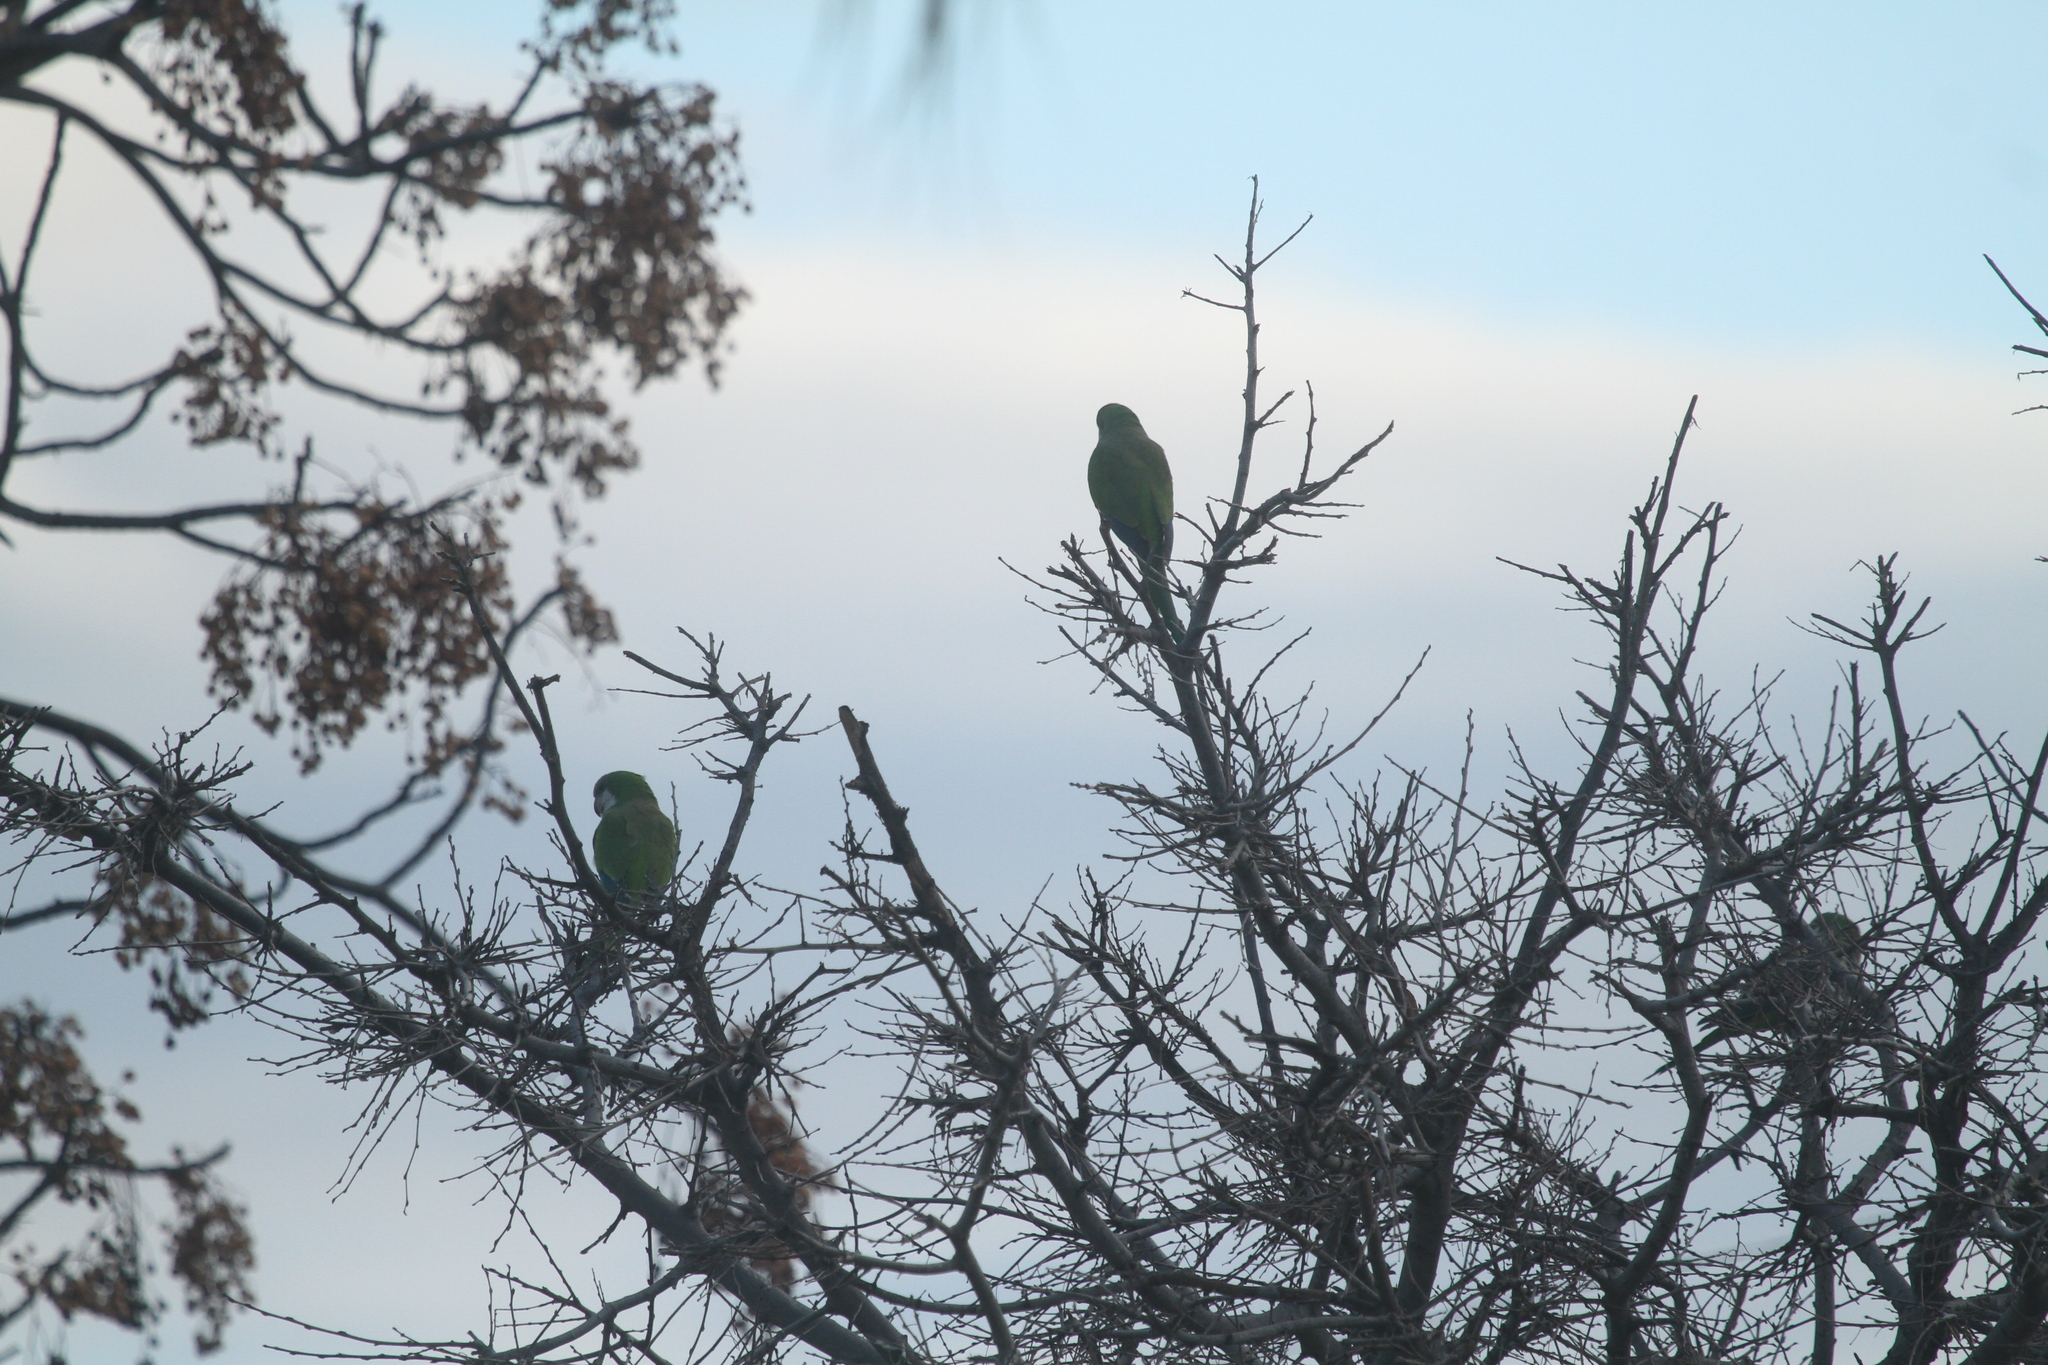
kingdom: Animalia
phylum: Chordata
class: Aves
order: Psittaciformes
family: Psittacidae
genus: Myiopsitta
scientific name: Myiopsitta monachus
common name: Monk parakeet
